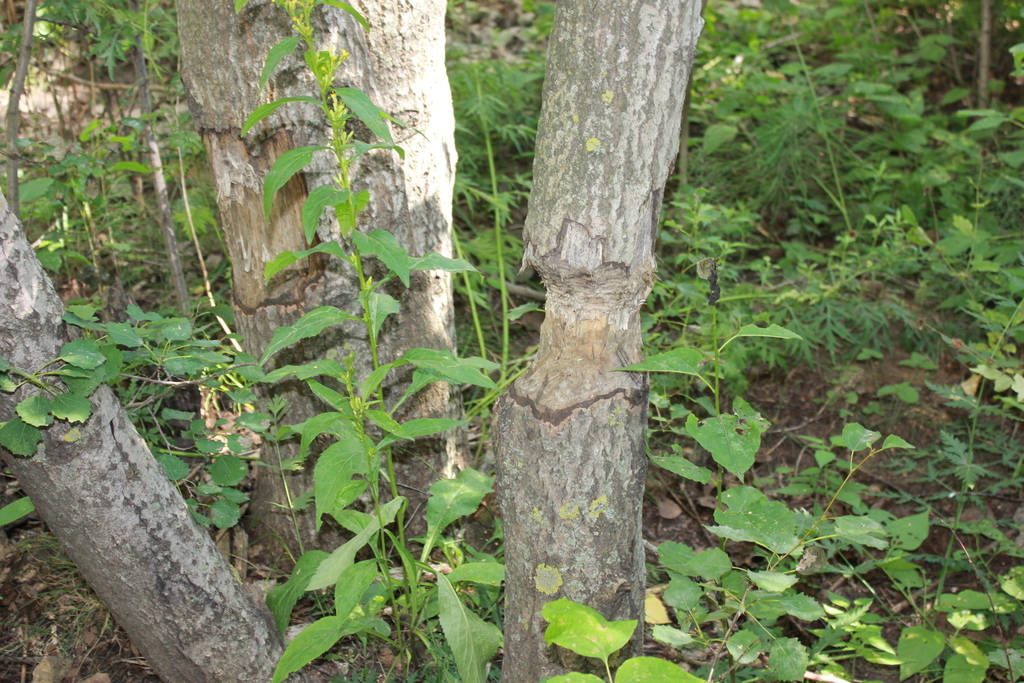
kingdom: Animalia
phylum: Chordata
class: Mammalia
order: Rodentia
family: Castoridae
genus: Castor
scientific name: Castor fiber
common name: Eurasian beaver
